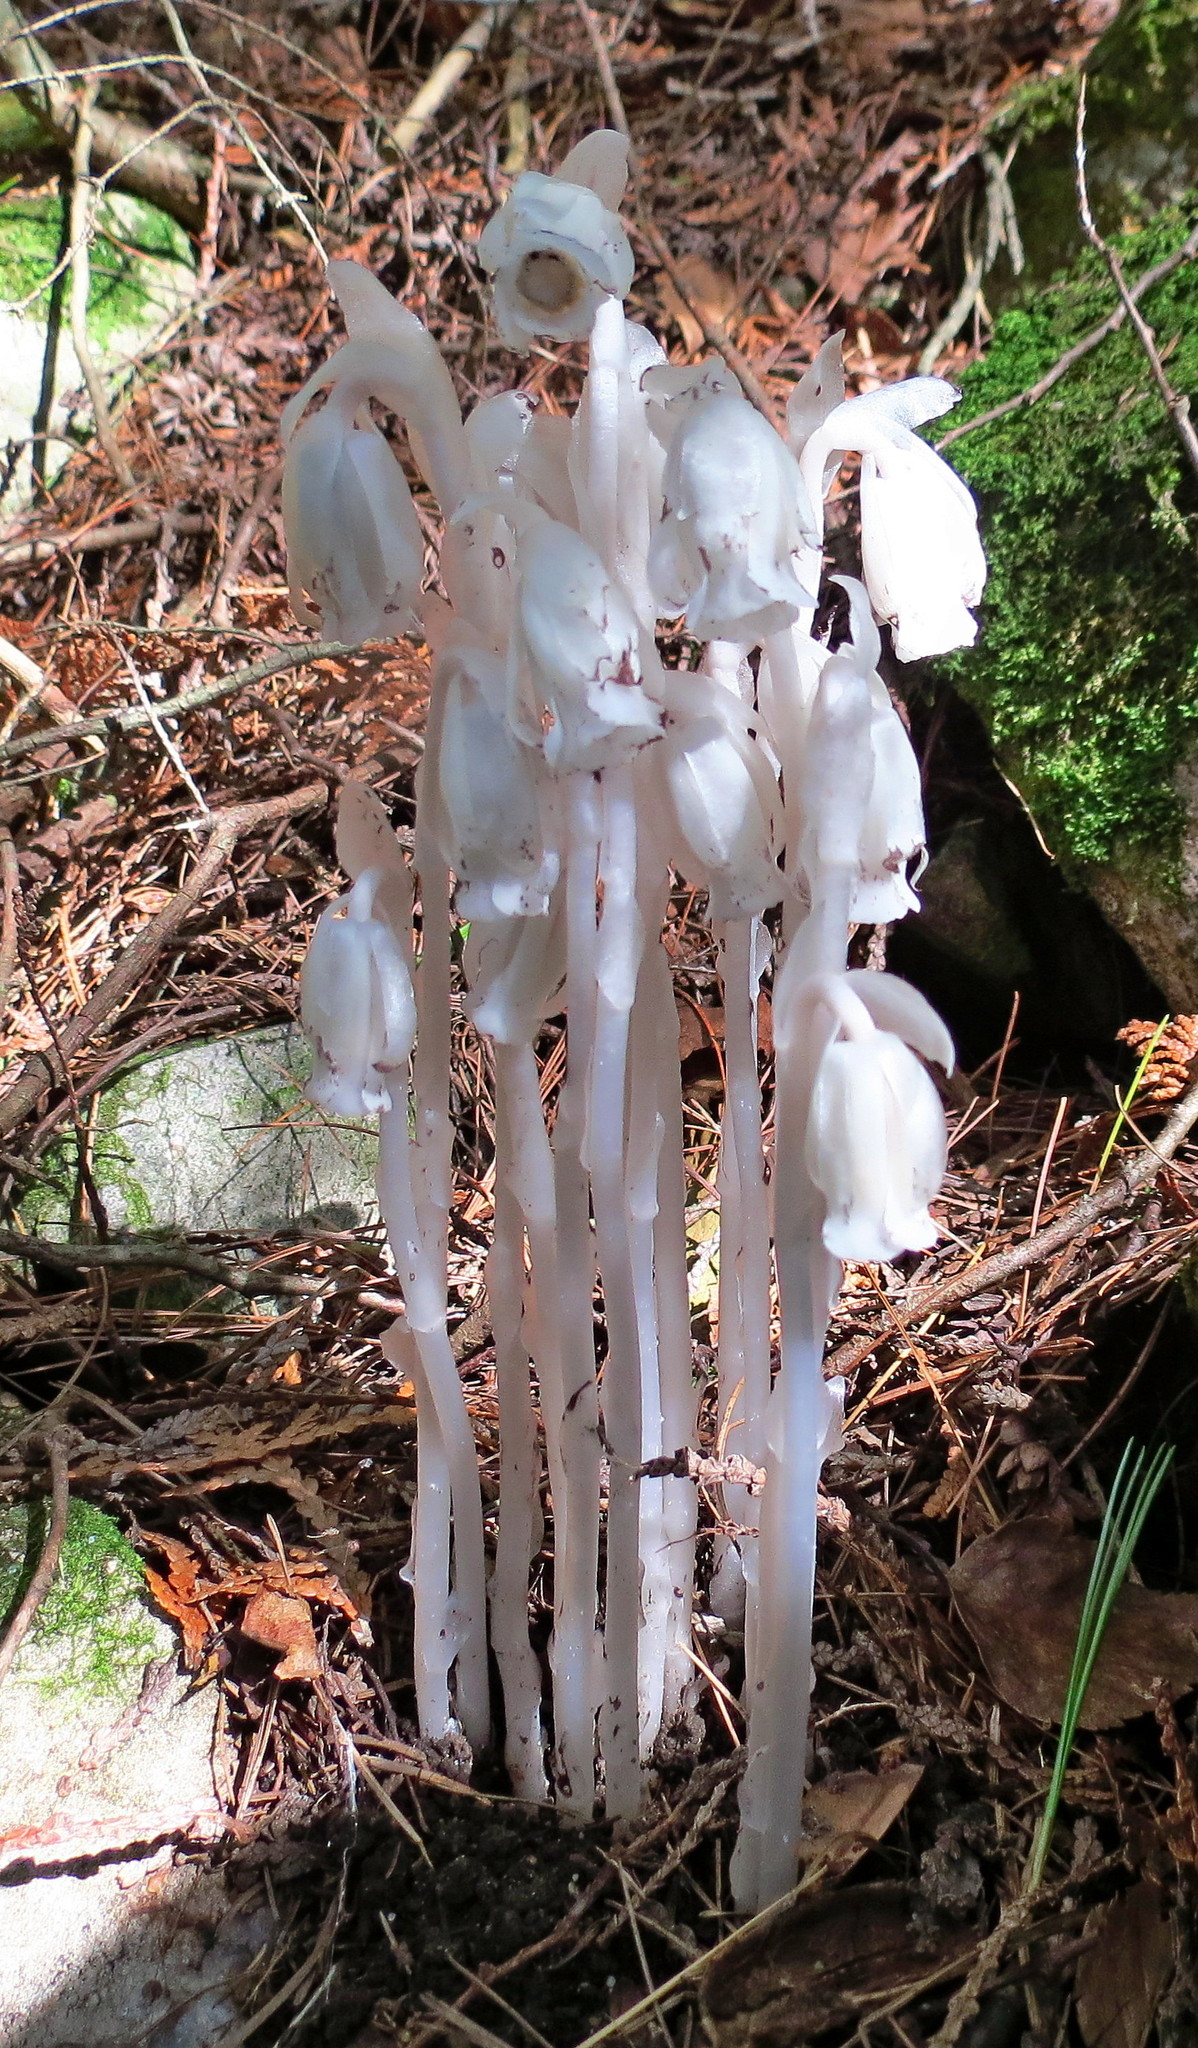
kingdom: Plantae
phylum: Tracheophyta
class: Magnoliopsida
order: Ericales
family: Ericaceae
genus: Monotropa
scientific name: Monotropa uniflora
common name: Convulsion root
